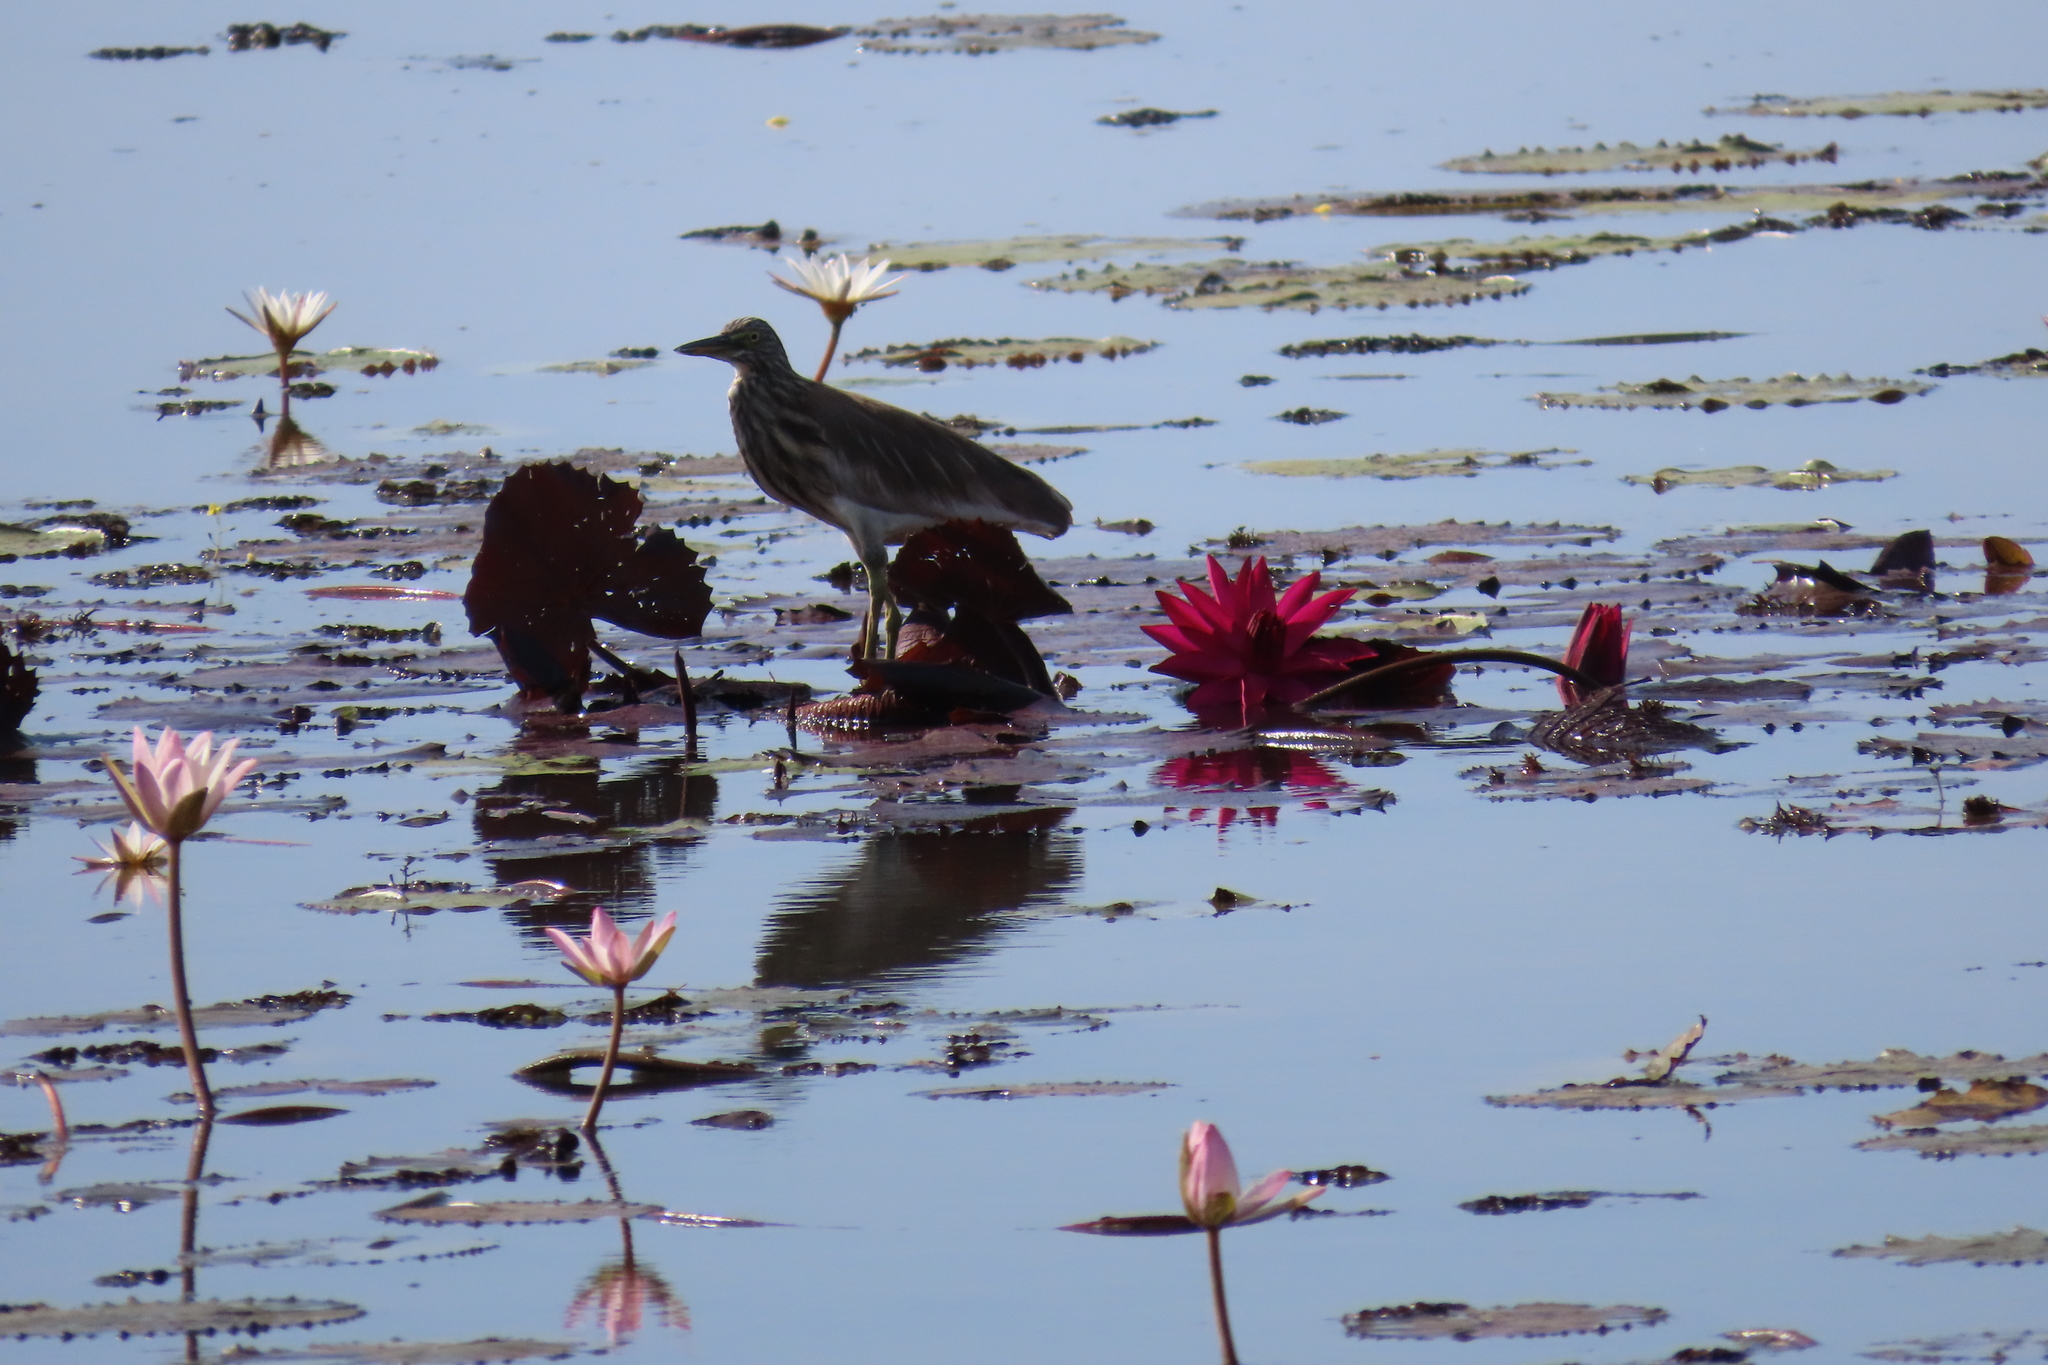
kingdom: Animalia
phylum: Chordata
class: Aves
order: Pelecaniformes
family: Ardeidae
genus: Ardeola
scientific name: Ardeola grayii
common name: Indian pond heron
